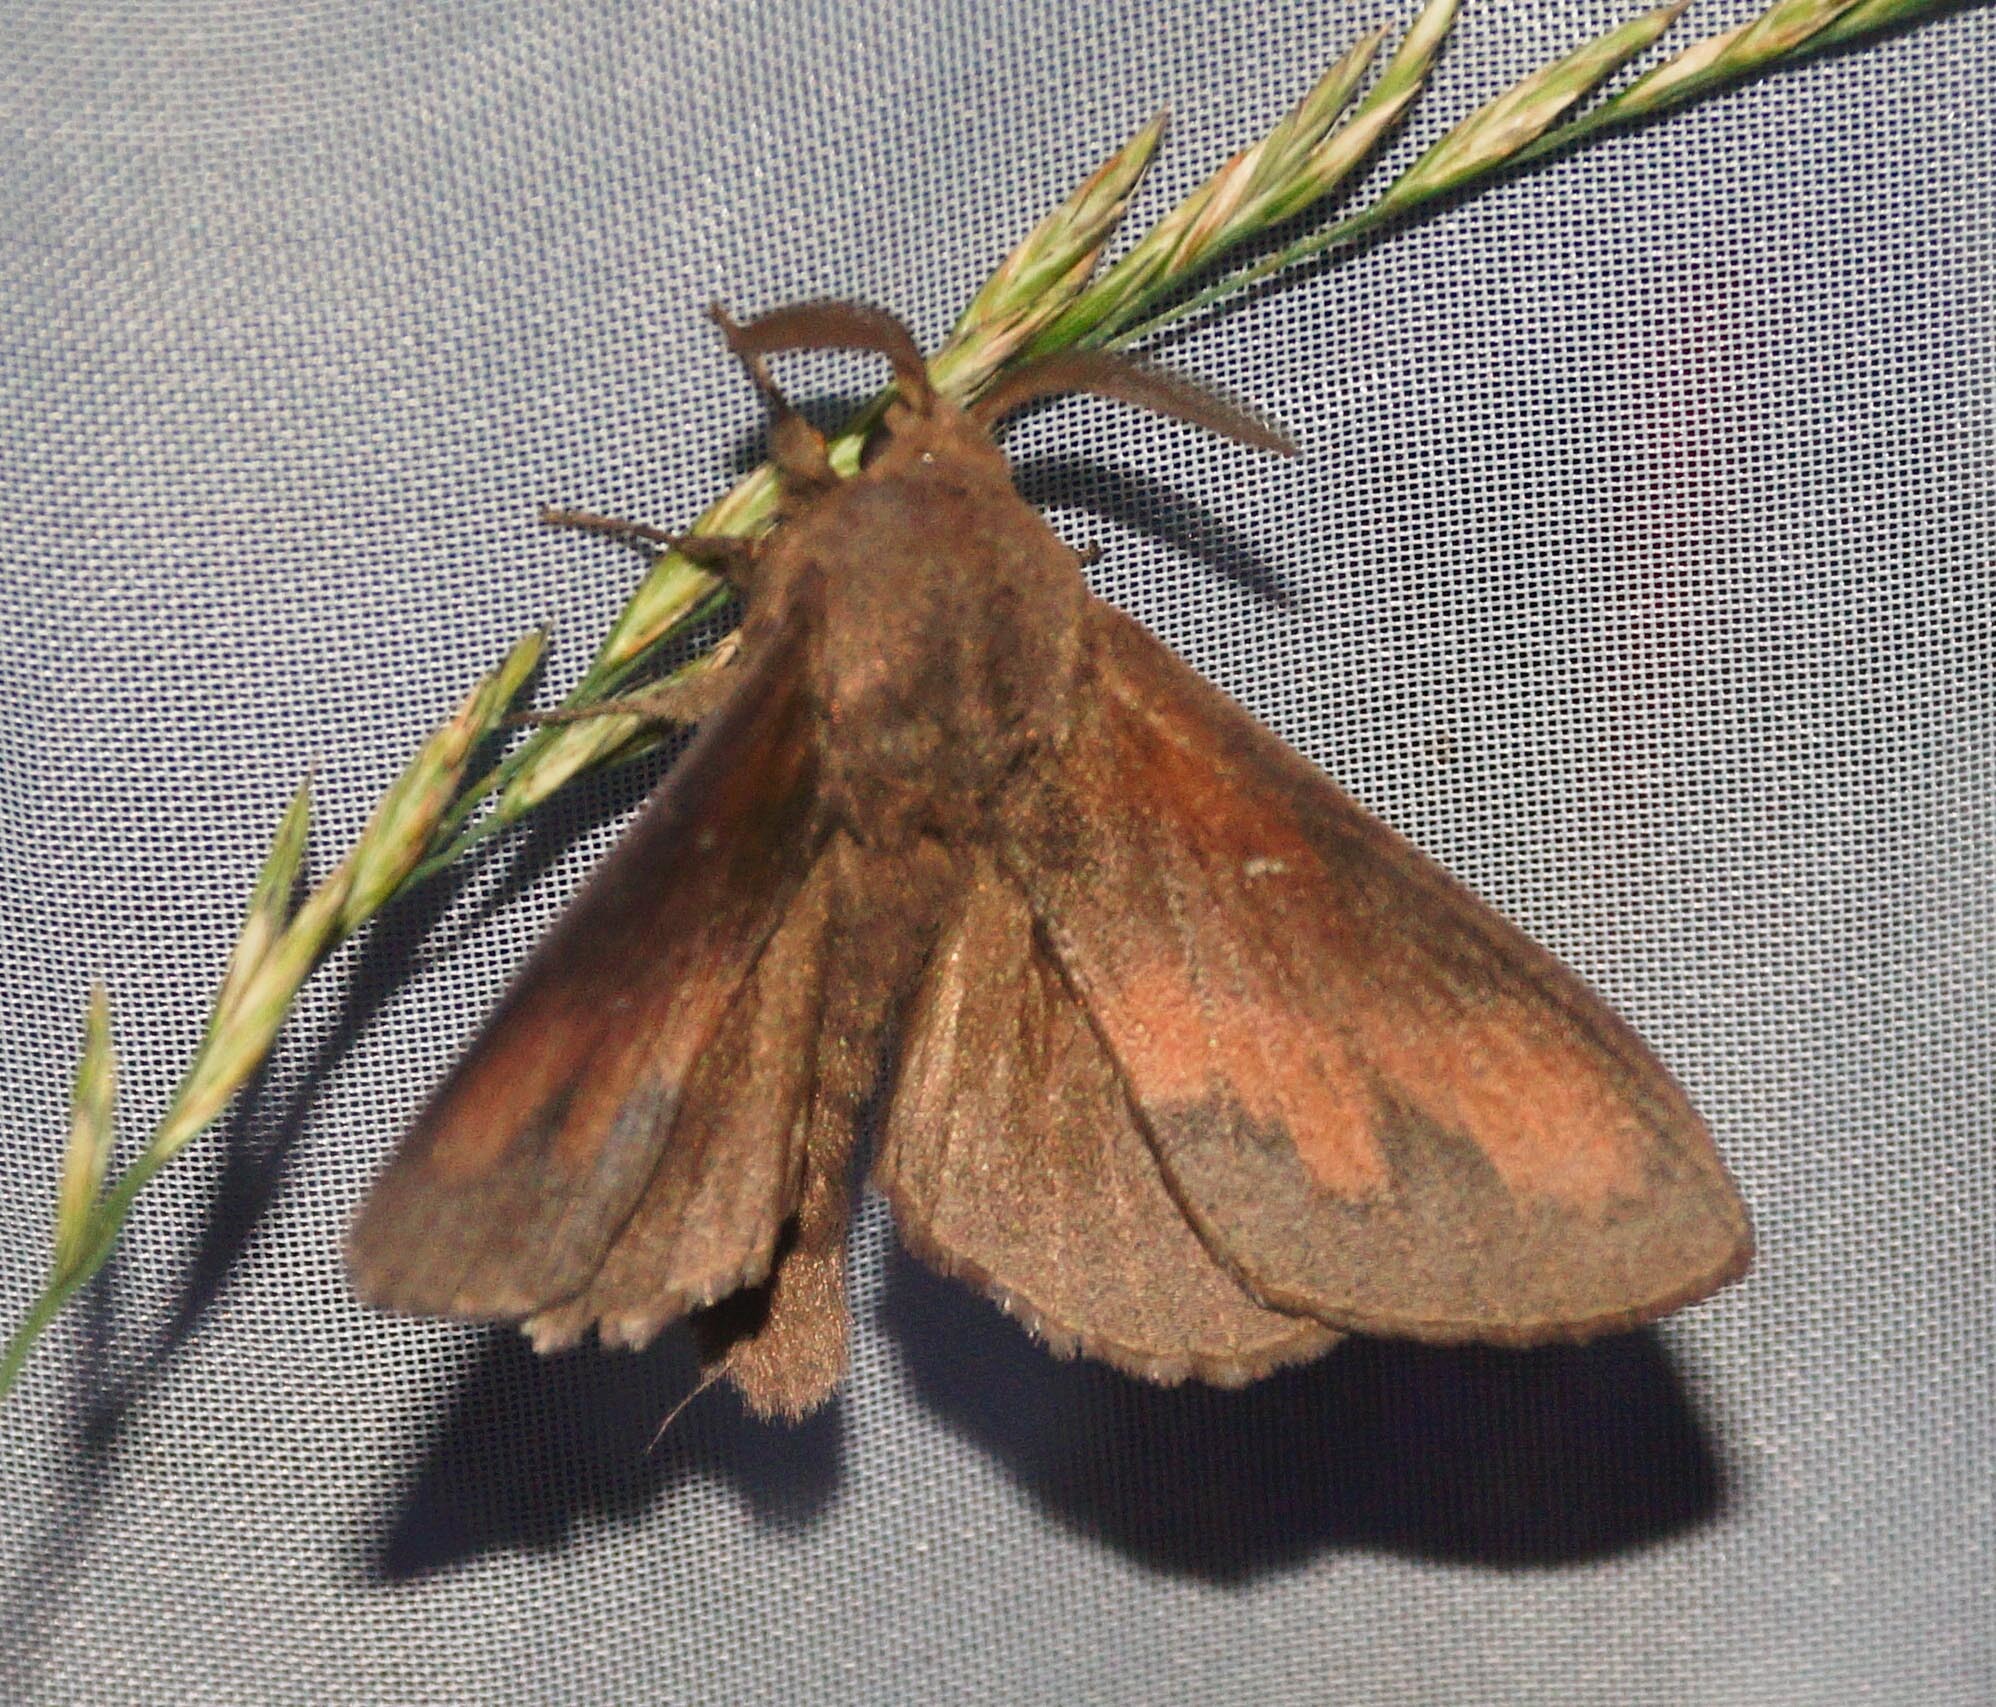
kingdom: Animalia
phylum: Arthropoda
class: Insecta
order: Lepidoptera
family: Lasiocampidae
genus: Dendrolimus
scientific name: Dendrolimus pini
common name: Pine-tree lappet
